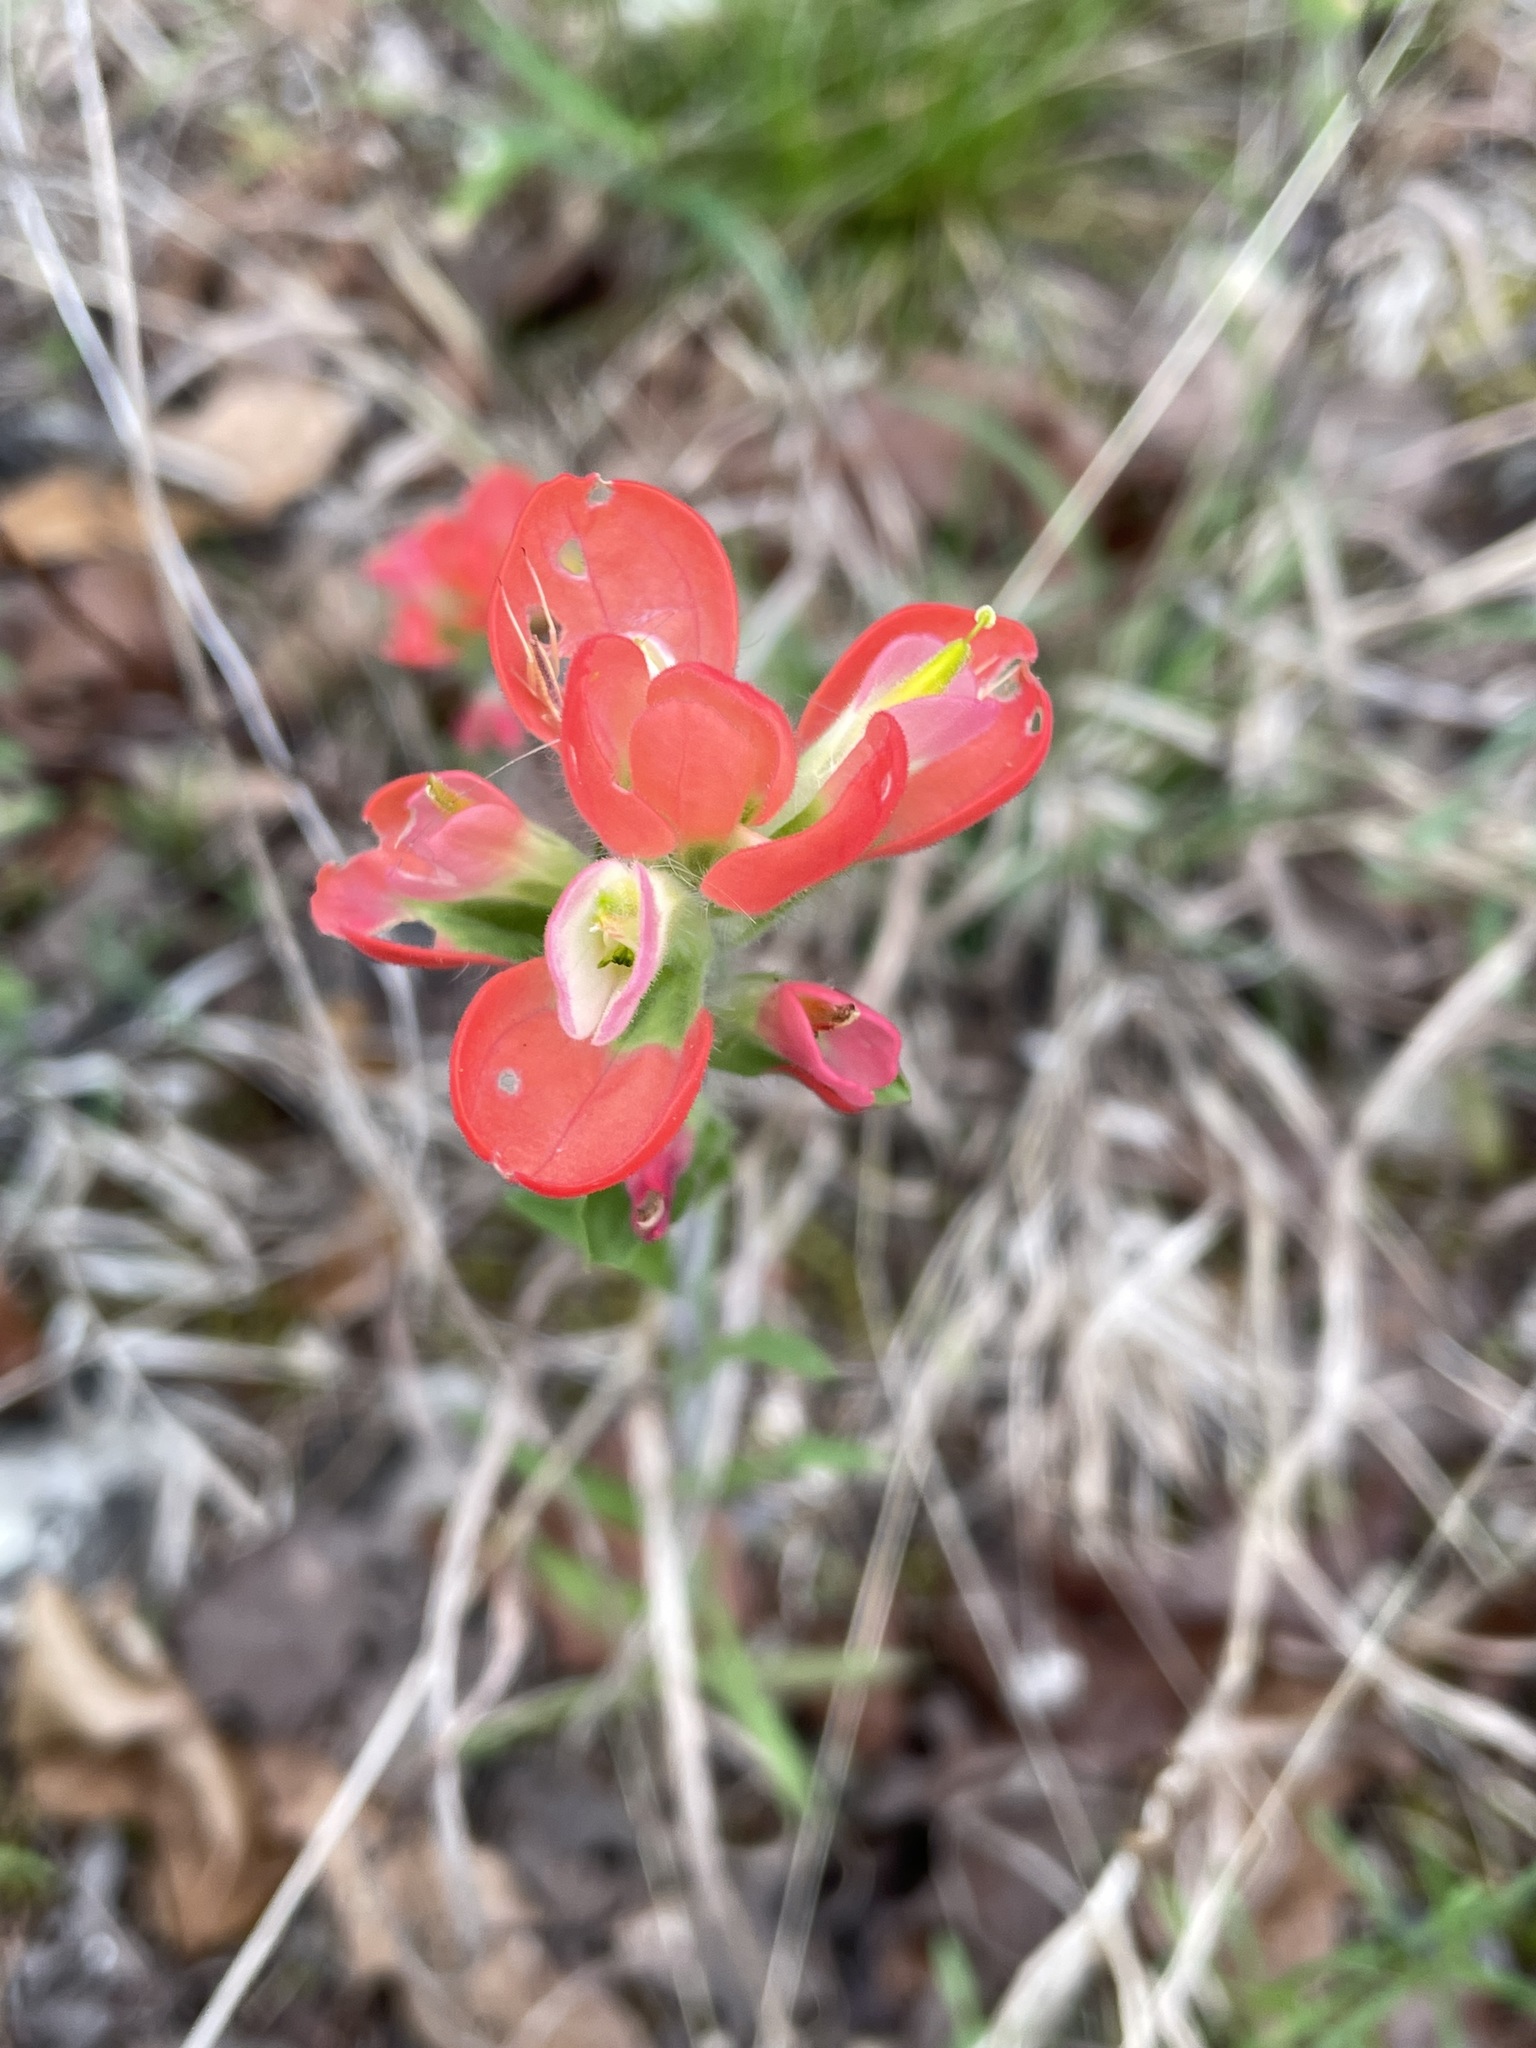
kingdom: Plantae
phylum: Tracheophyta
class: Magnoliopsida
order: Lamiales
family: Orobanchaceae
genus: Castilleja
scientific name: Castilleja indivisa
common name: Texas paintbrush
